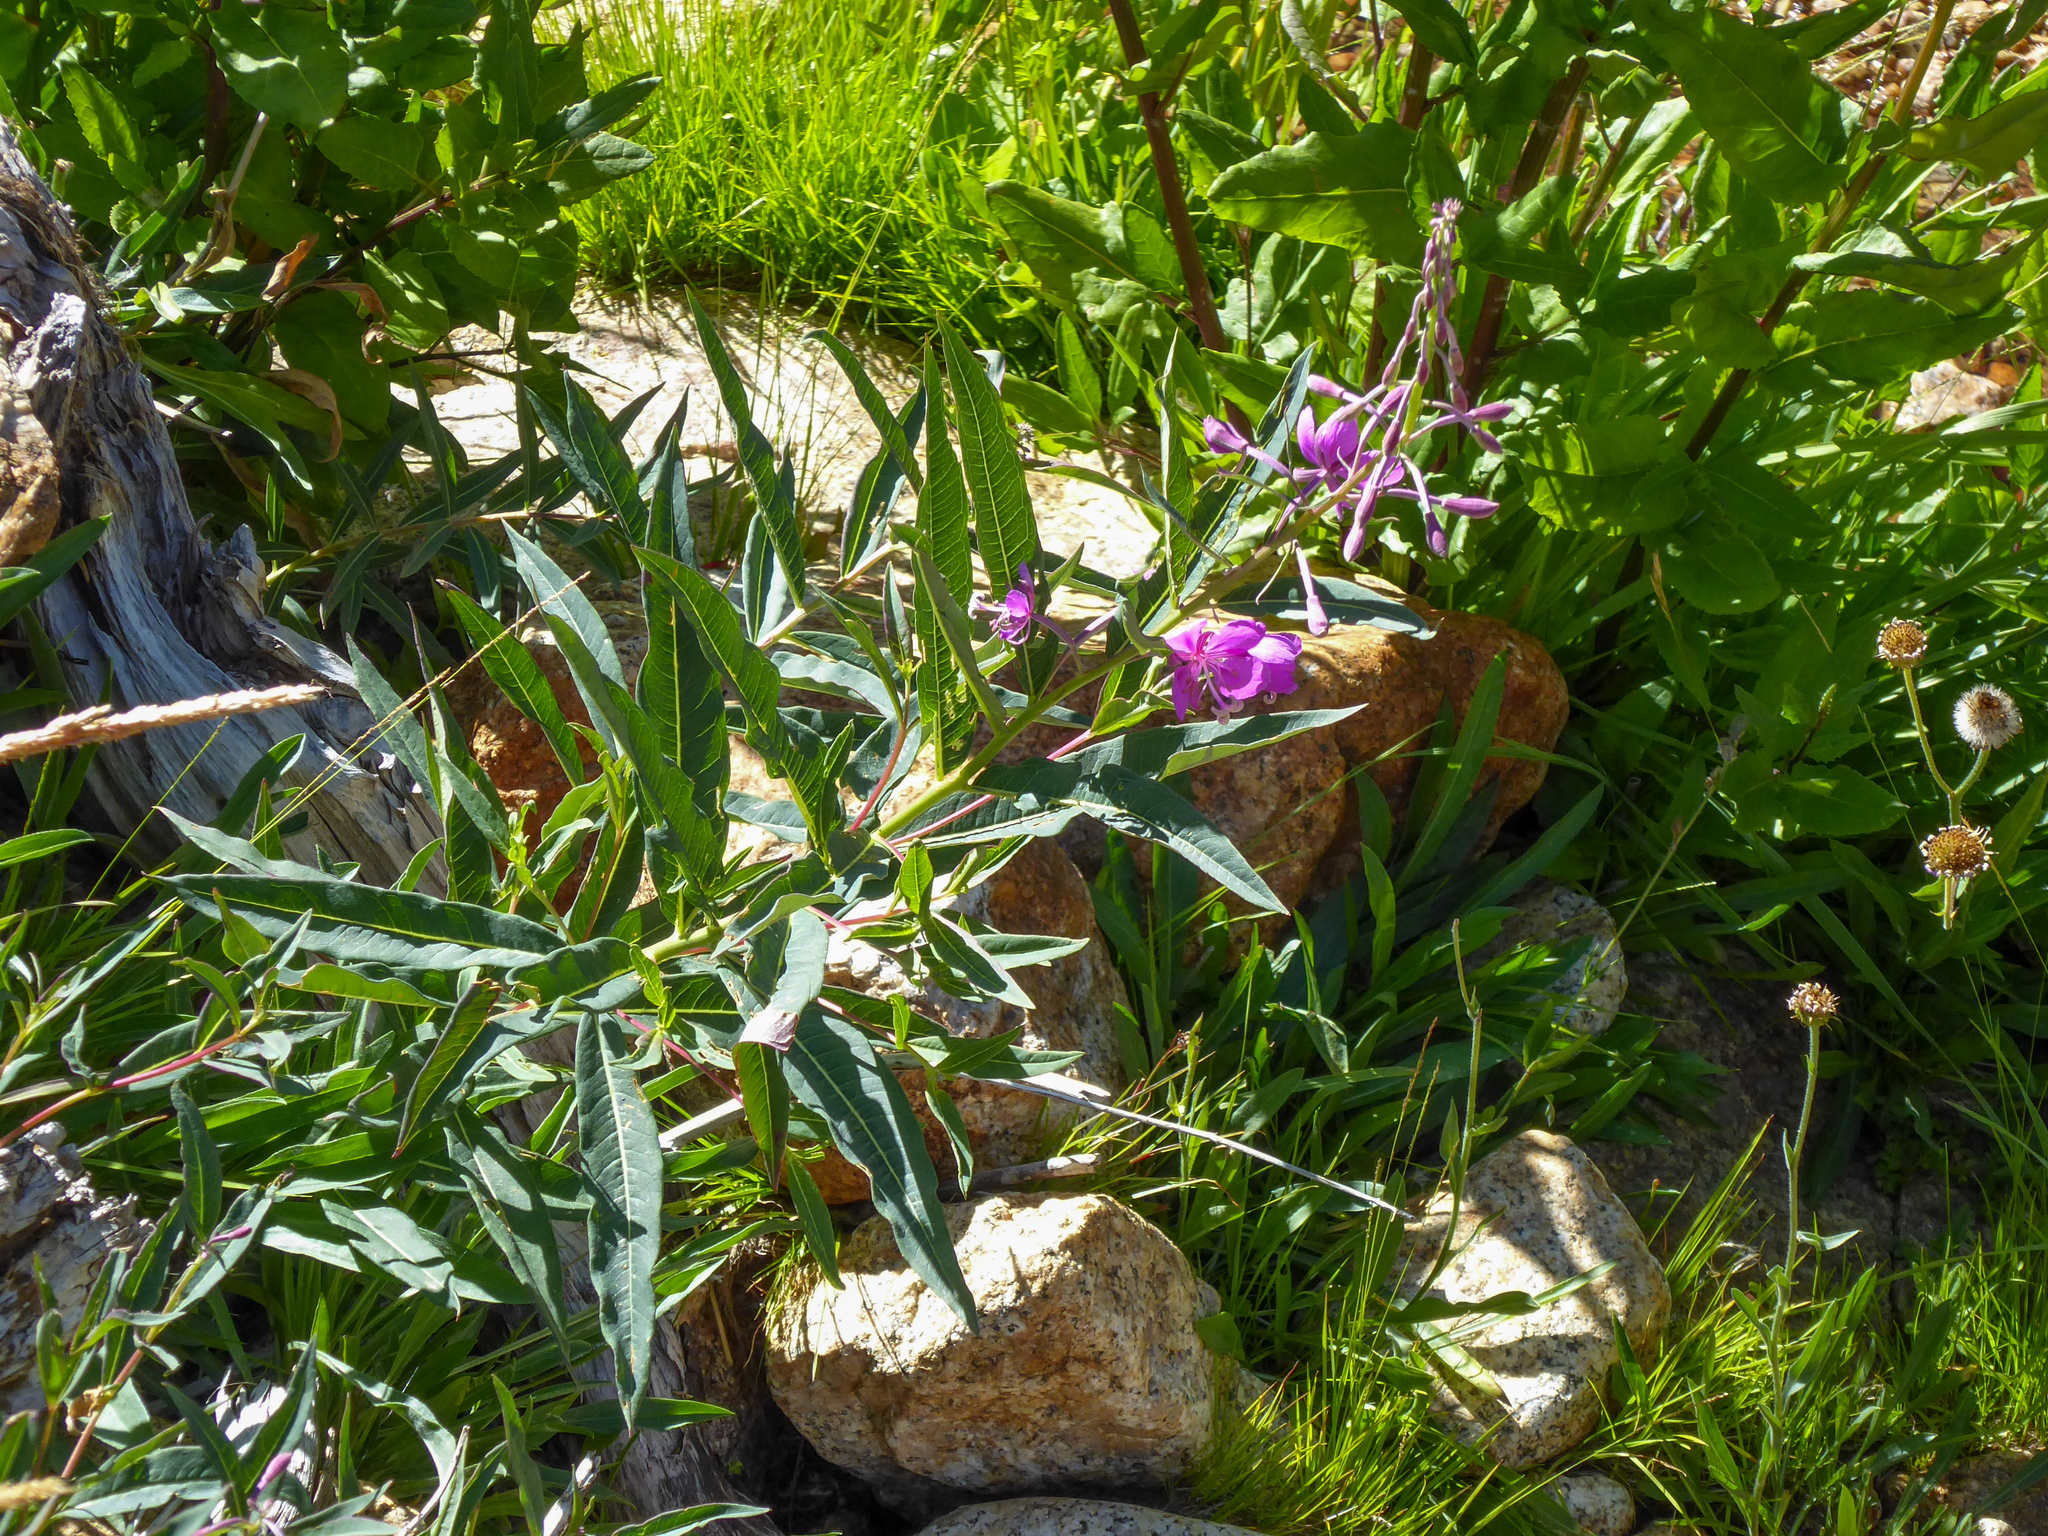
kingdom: Plantae
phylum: Tracheophyta
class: Magnoliopsida
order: Myrtales
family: Onagraceae
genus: Chamaenerion
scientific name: Chamaenerion angustifolium
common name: Fireweed
